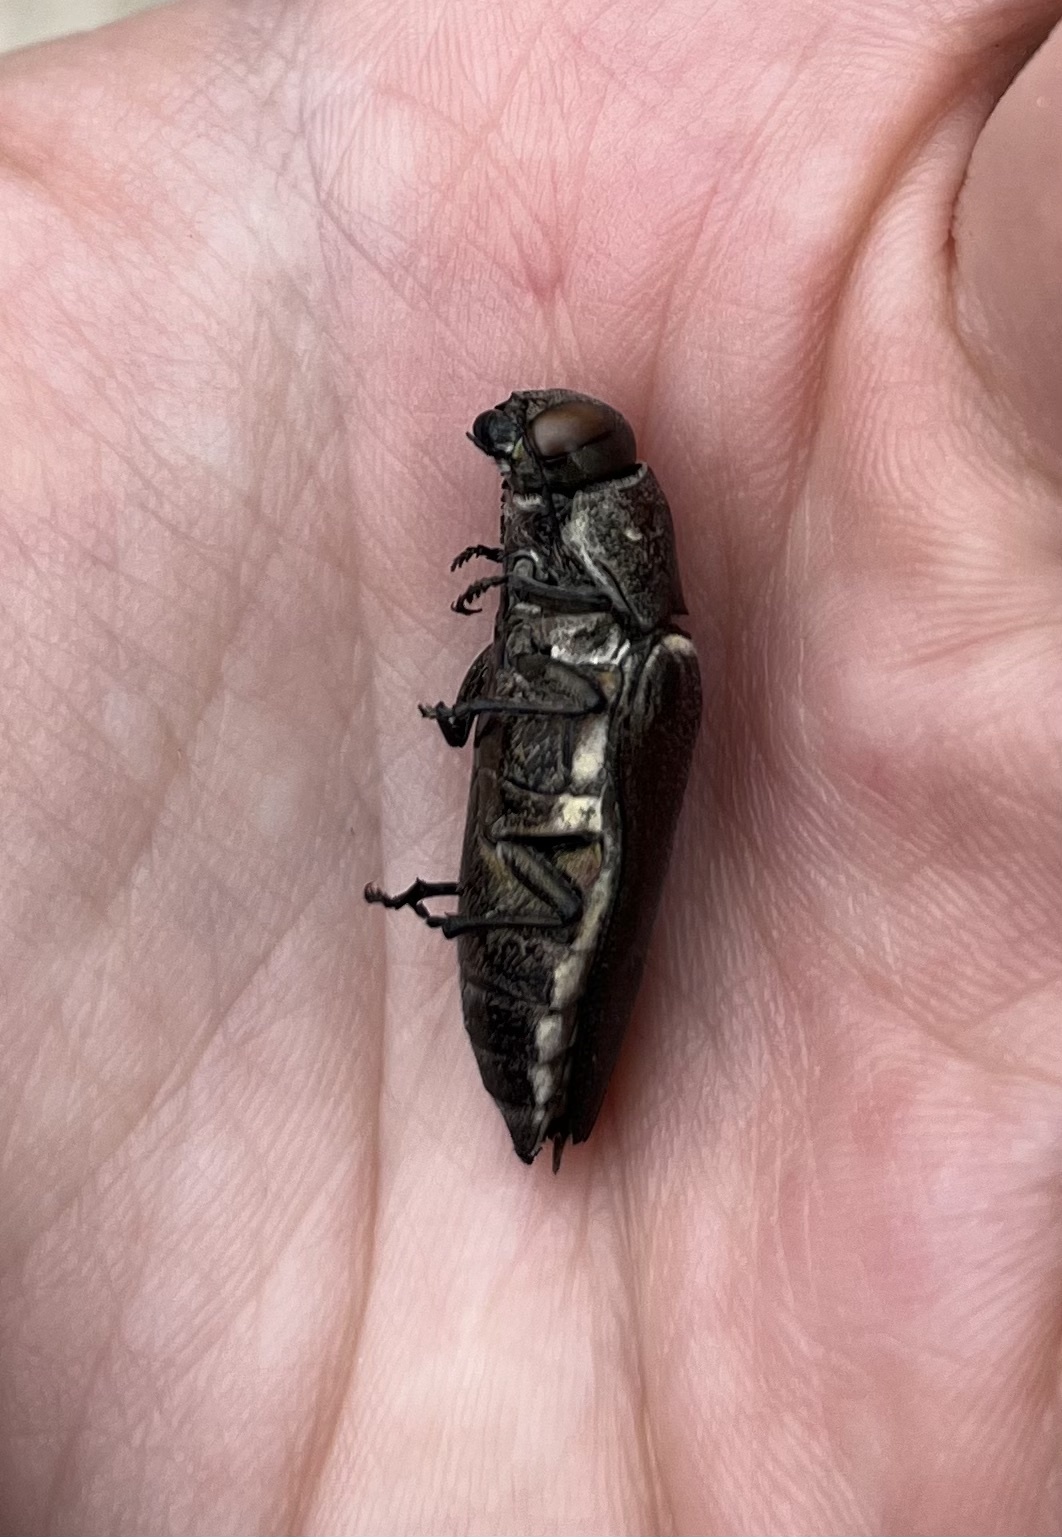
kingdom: Animalia
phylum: Arthropoda
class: Insecta
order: Coleoptera
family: Buprestidae
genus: Hippomelas
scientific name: Hippomelas aeneocupreus
